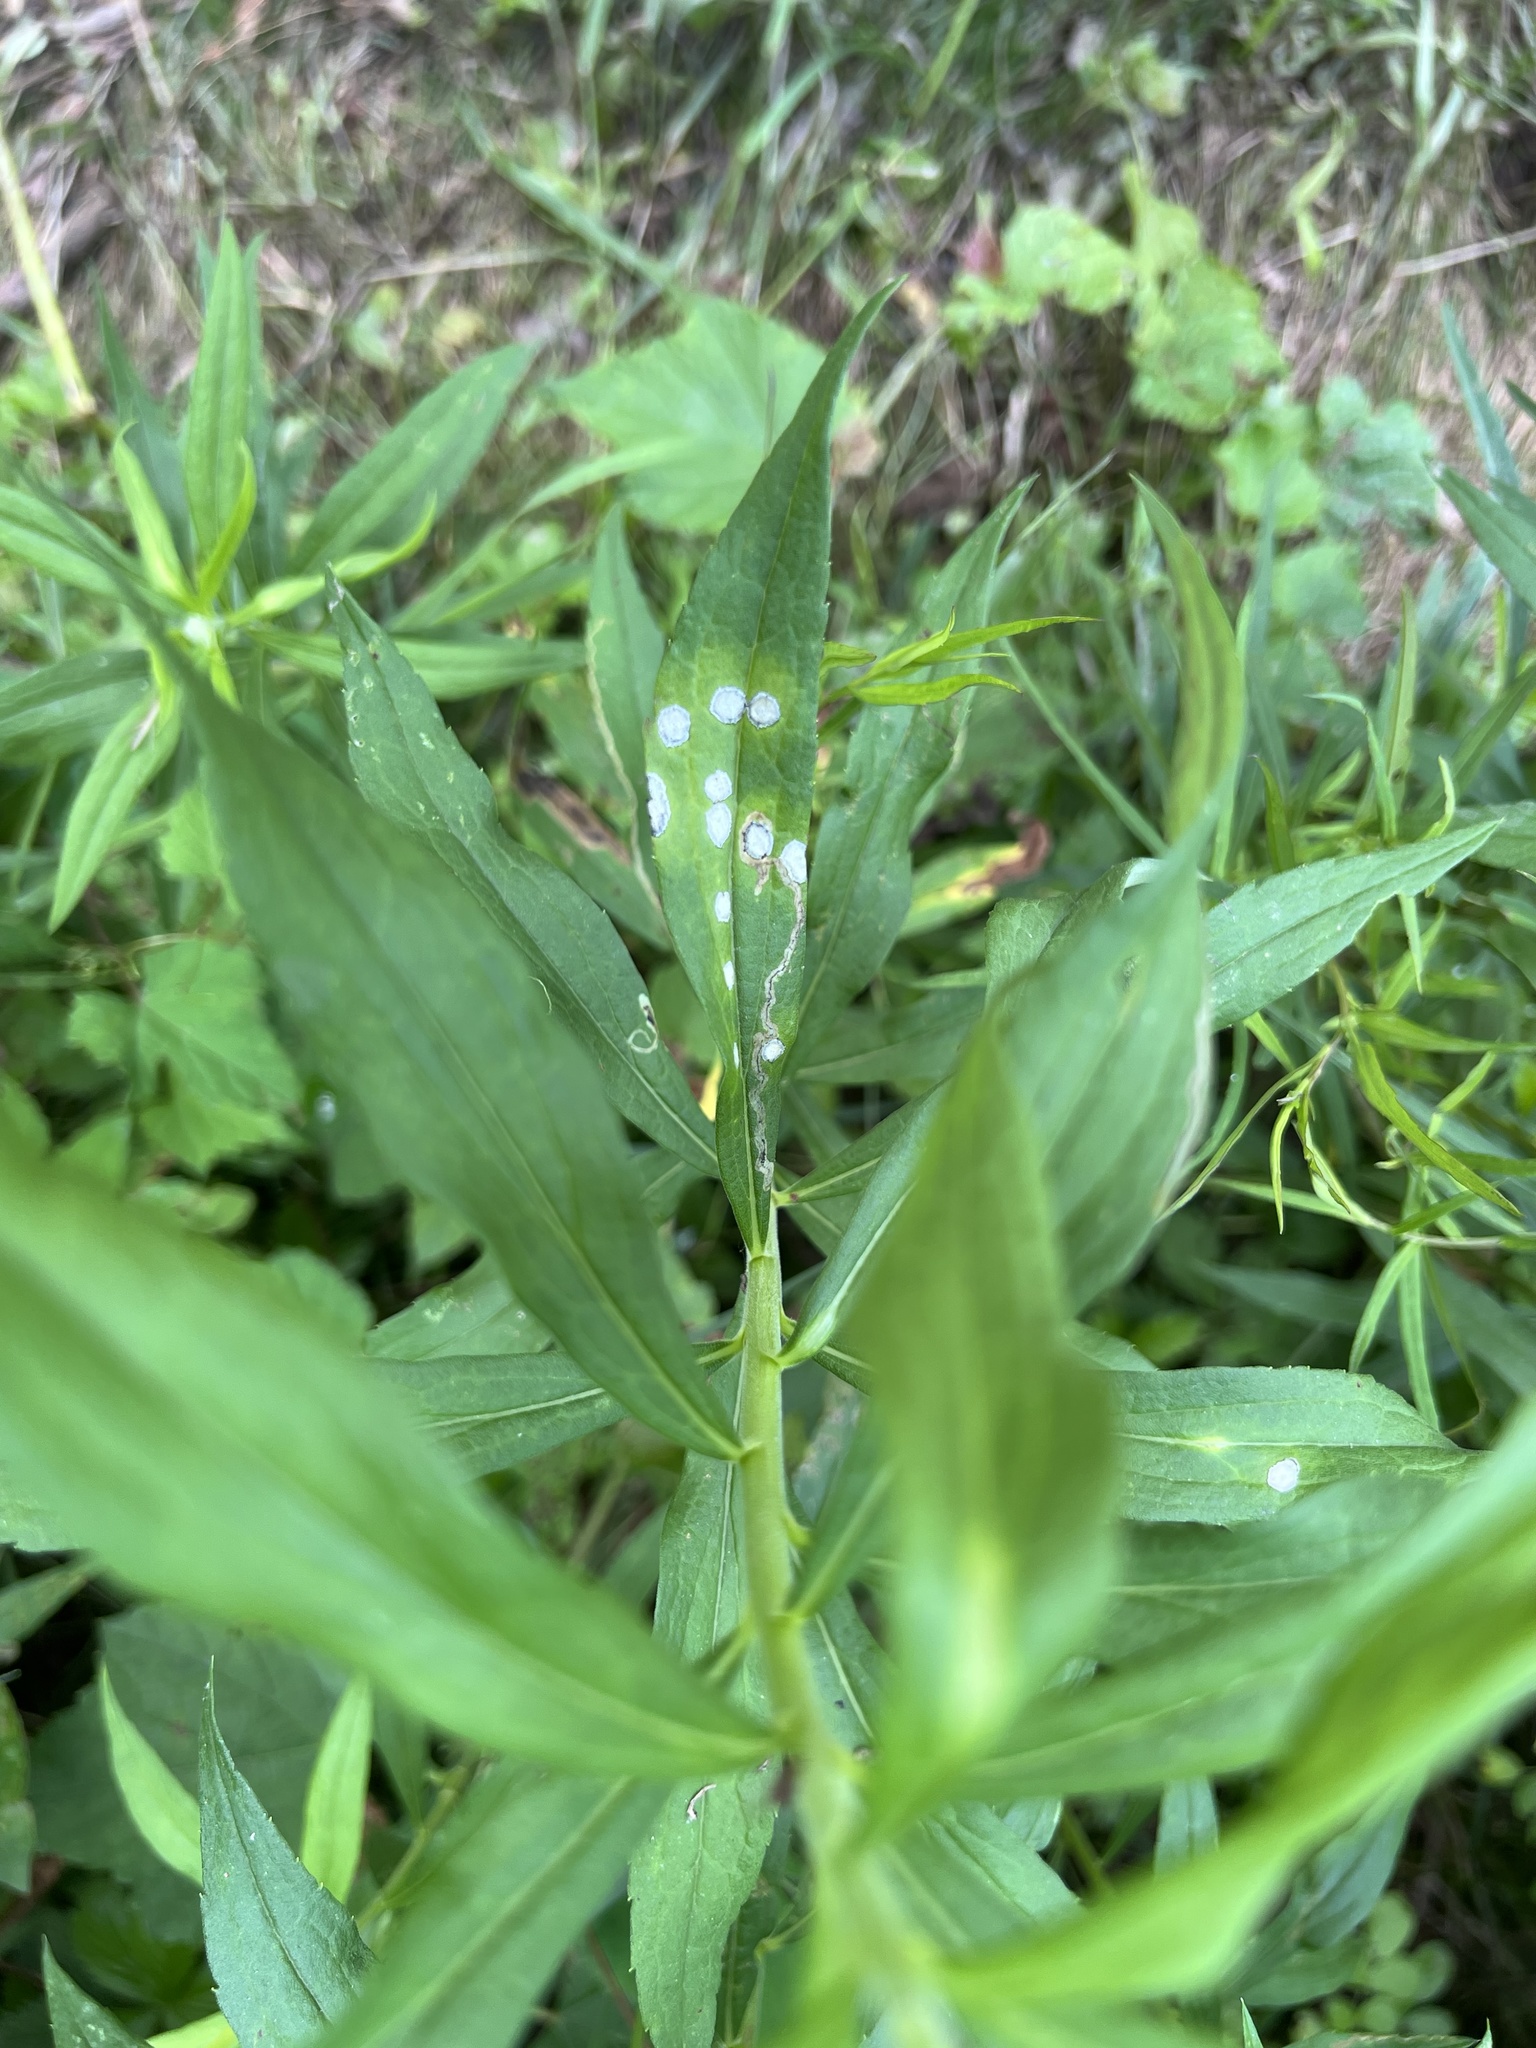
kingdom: Animalia
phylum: Arthropoda
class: Insecta
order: Diptera
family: Cecidomyiidae
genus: Asteromyia
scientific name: Asteromyia carbonifera
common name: Carbonifera goldenrod gall midge
